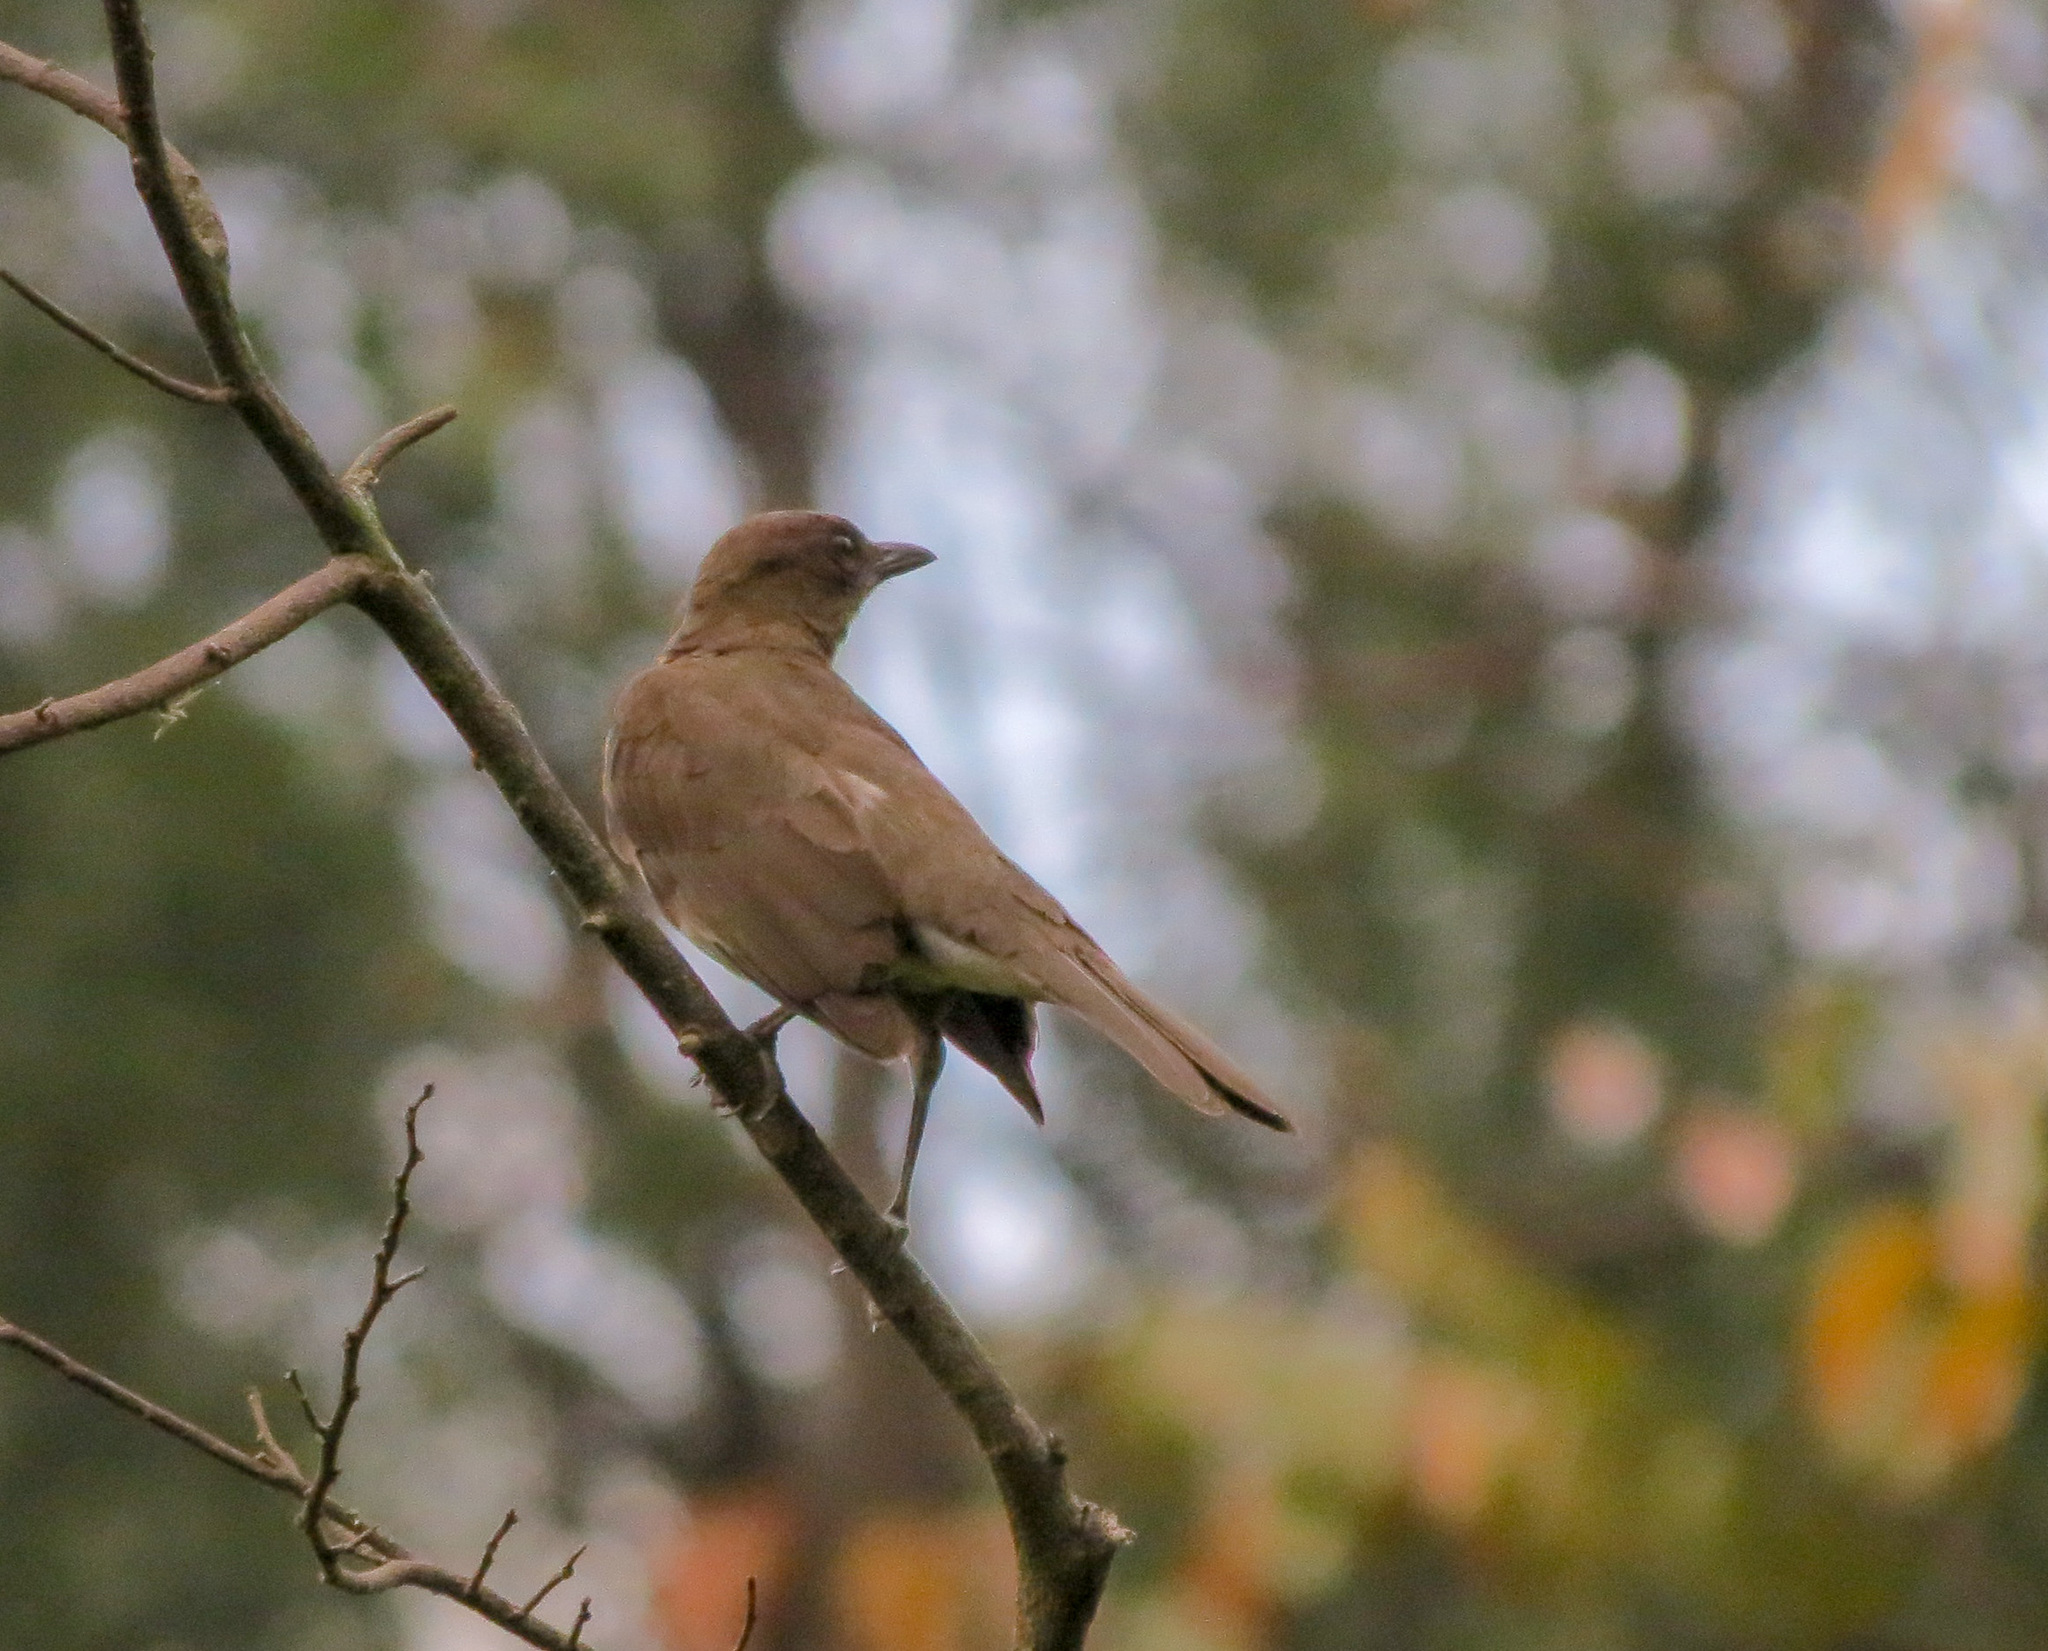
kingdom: Animalia
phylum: Chordata
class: Aves
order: Passeriformes
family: Turdidae
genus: Turdus
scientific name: Turdus ignobilis
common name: Black-billed thrush
